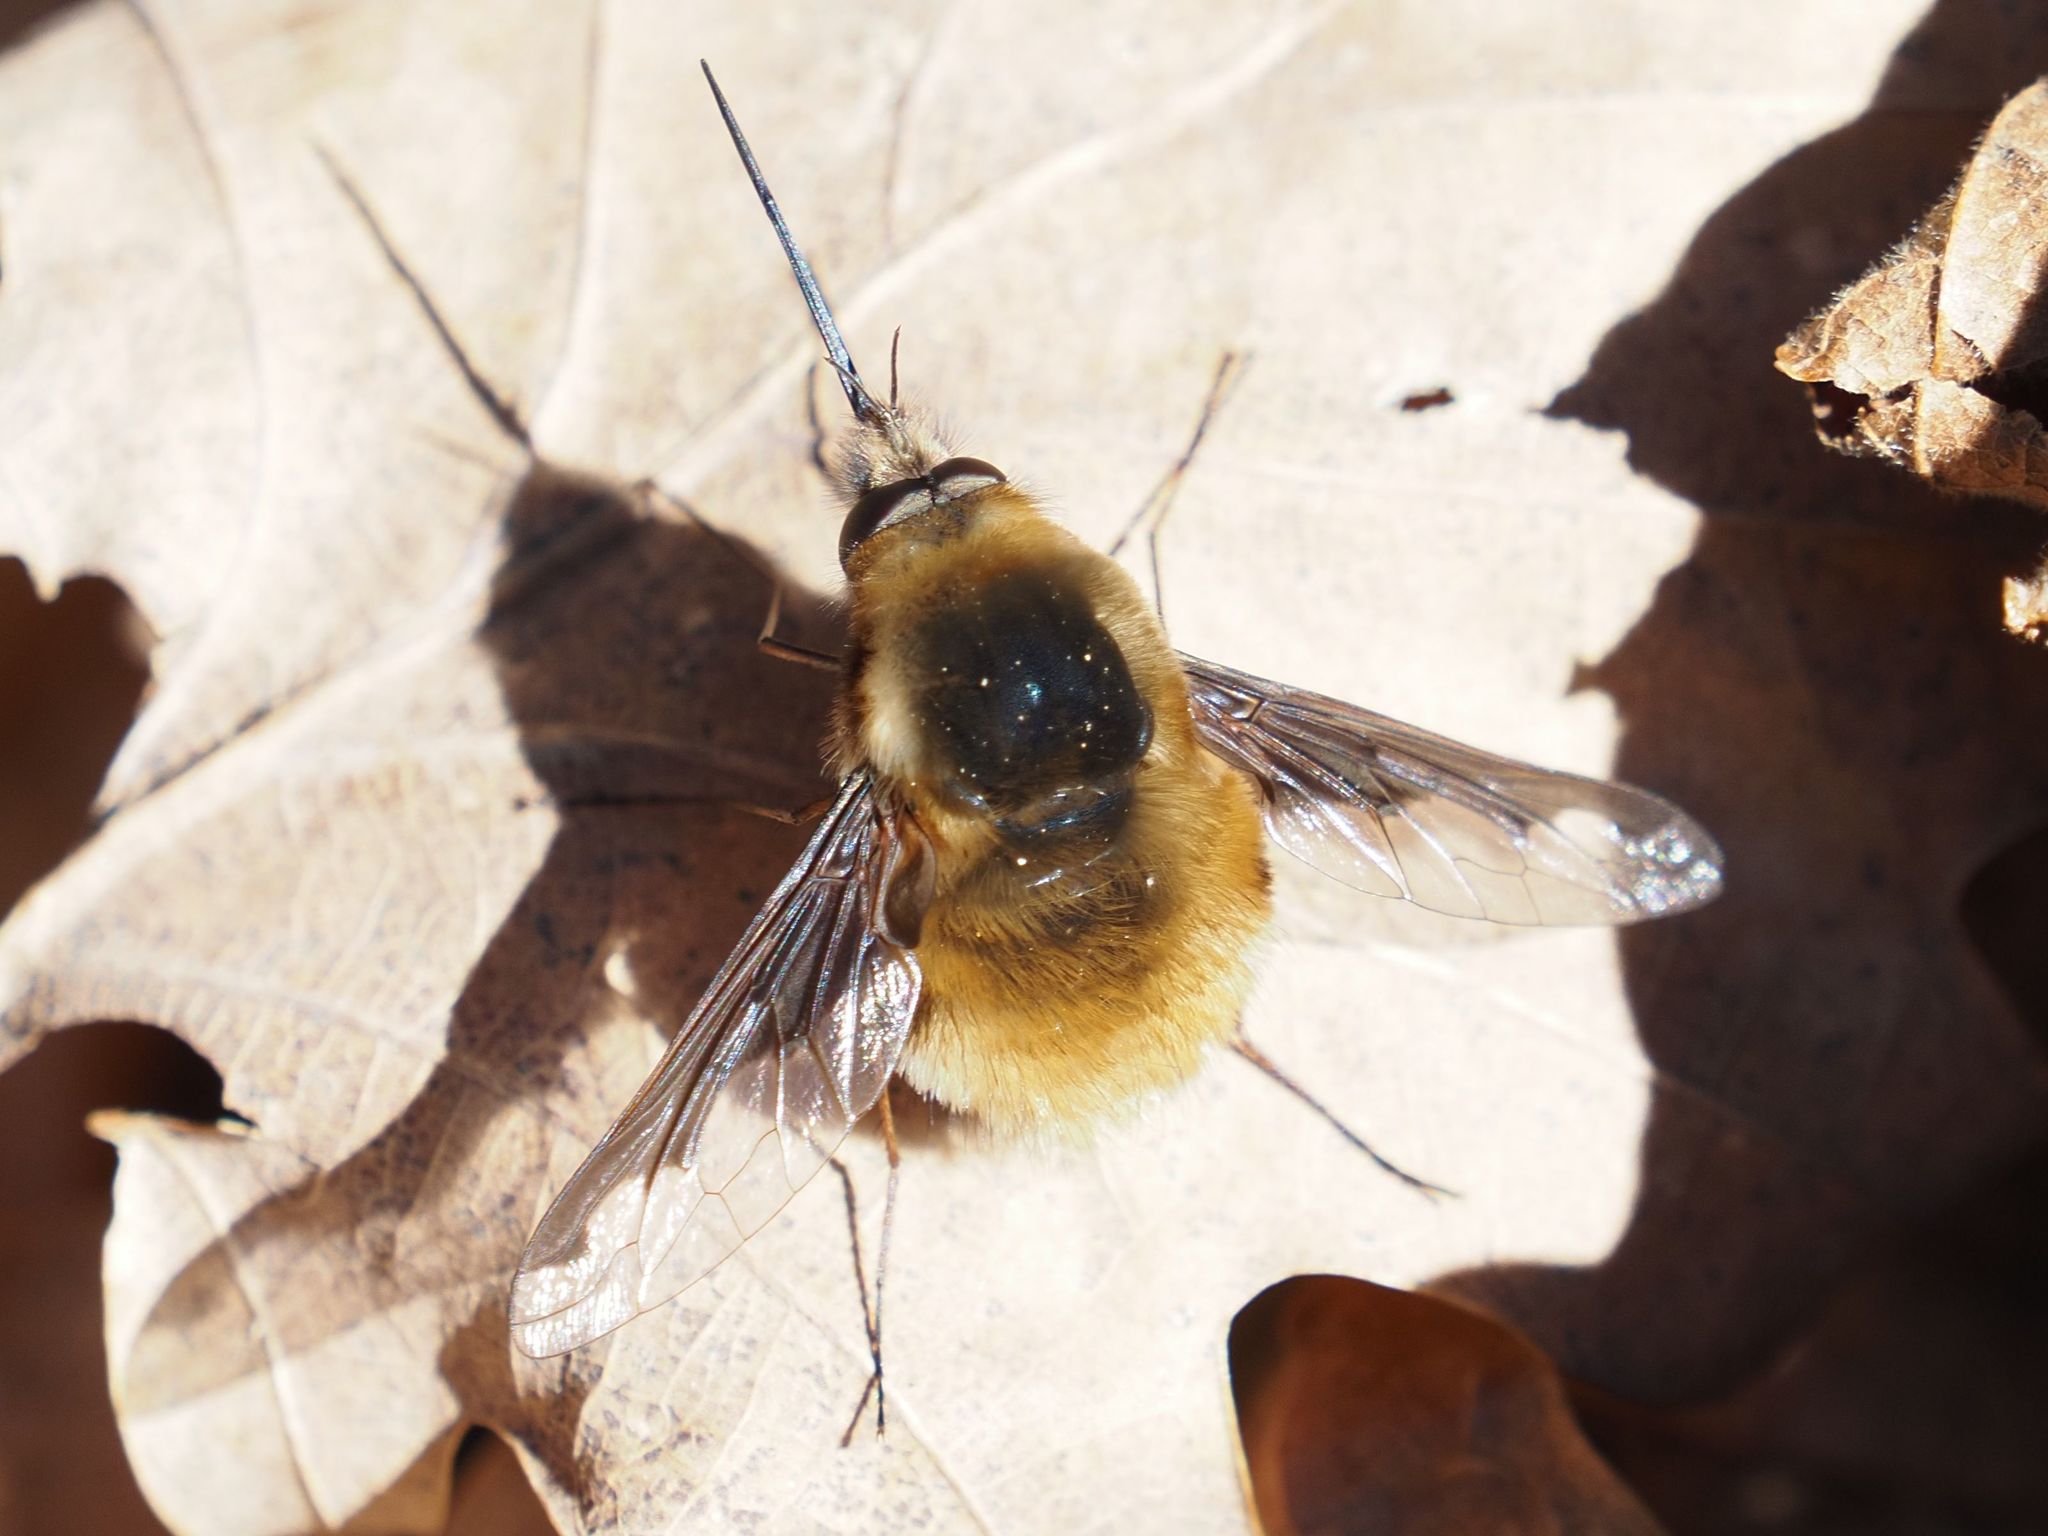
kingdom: Animalia
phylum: Arthropoda
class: Insecta
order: Diptera
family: Bombyliidae
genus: Bombylius
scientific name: Bombylius major
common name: Bee fly
